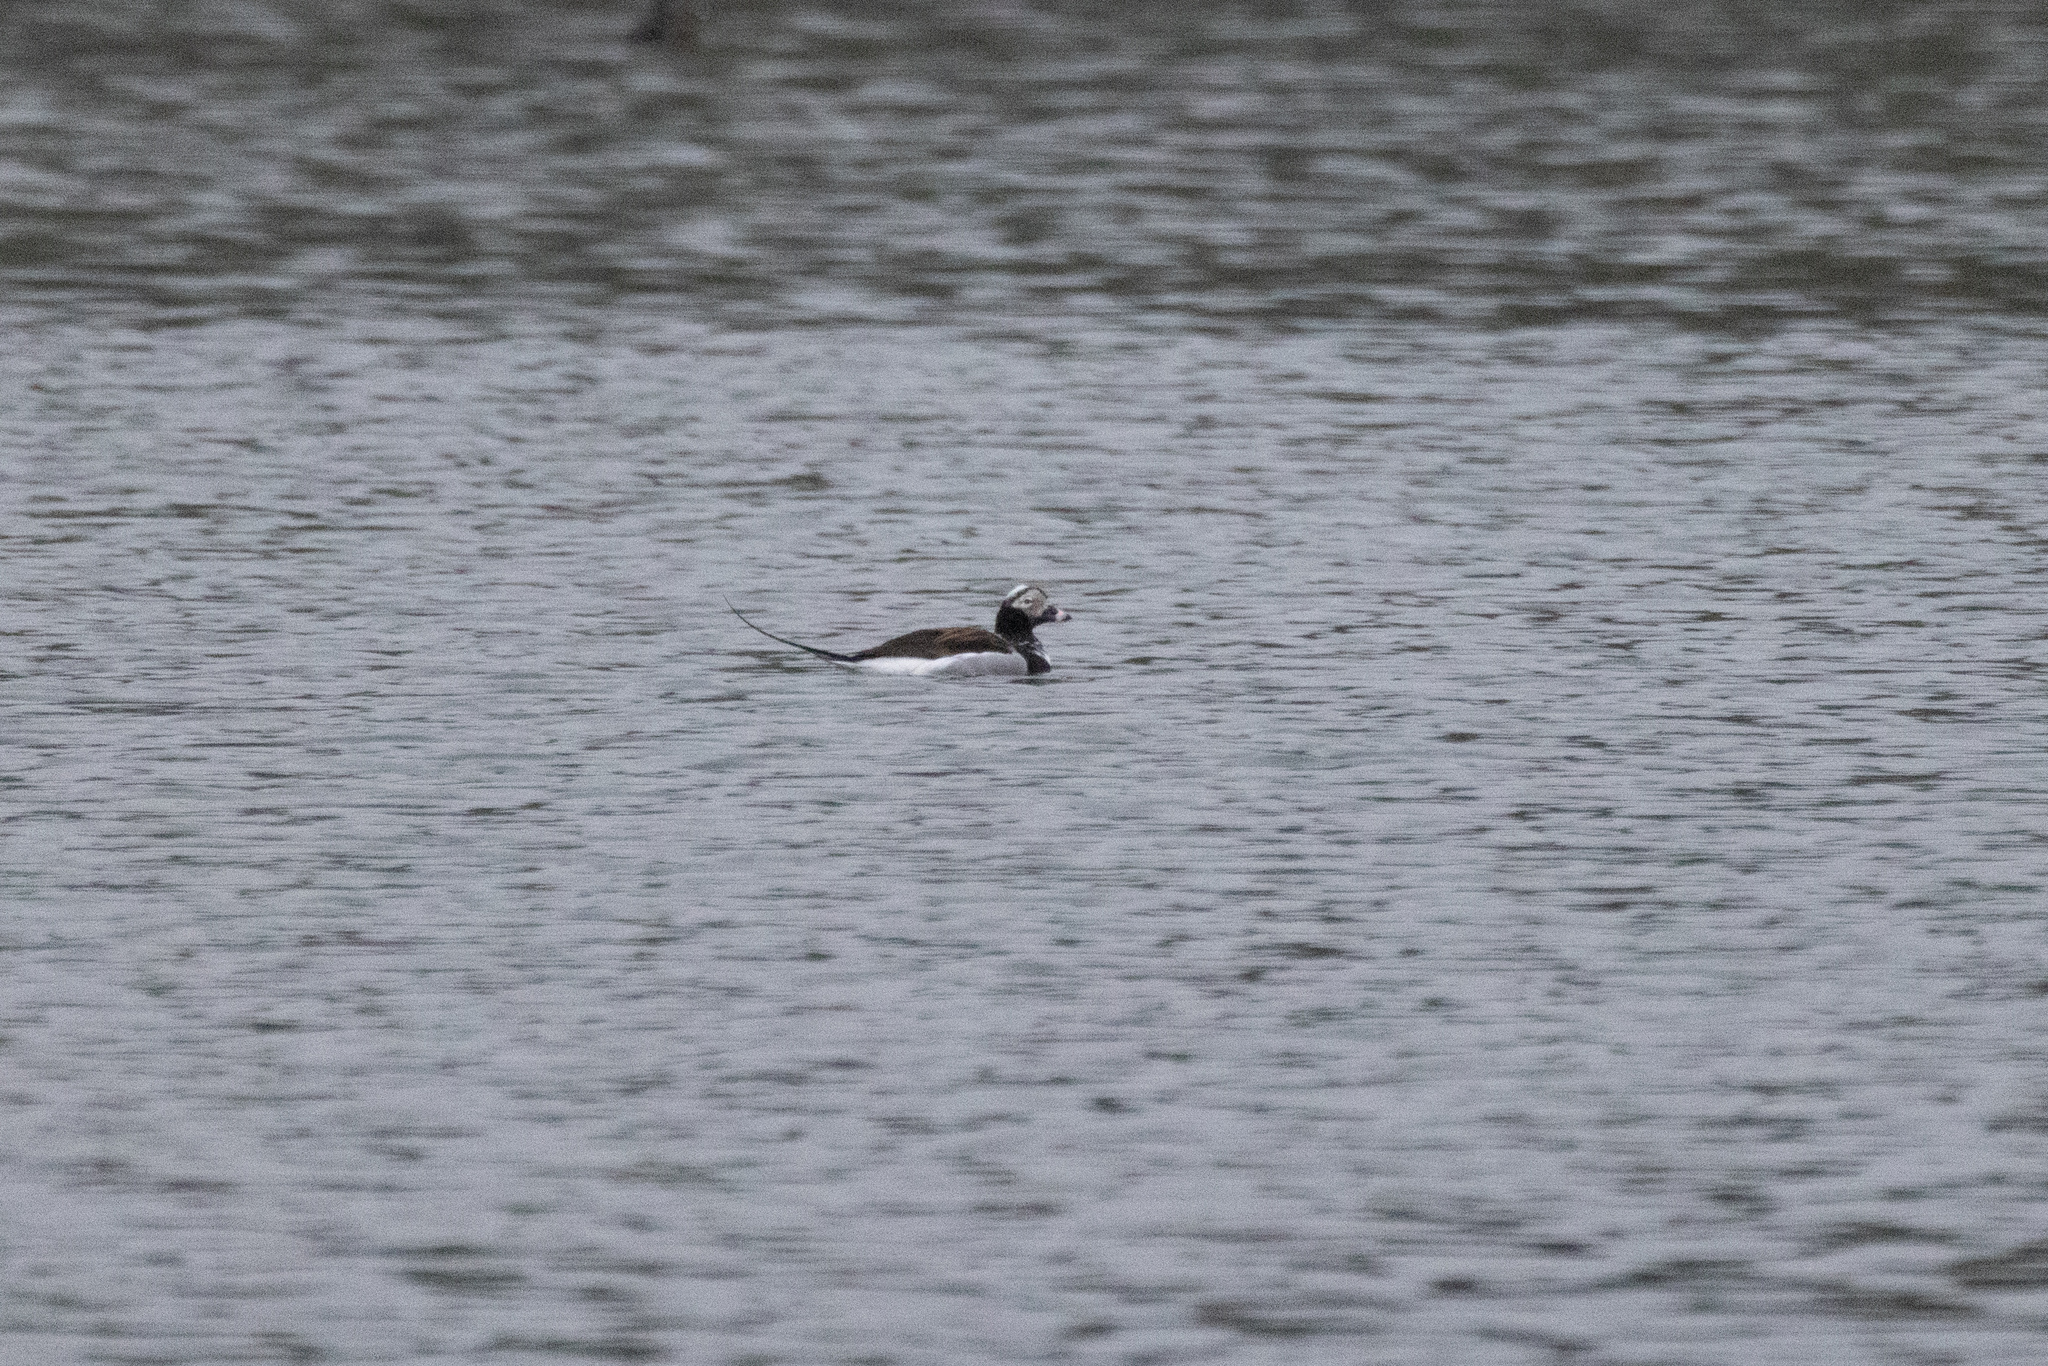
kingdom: Animalia
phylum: Chordata
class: Aves
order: Anseriformes
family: Anatidae
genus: Clangula
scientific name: Clangula hyemalis
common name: Long-tailed duck
